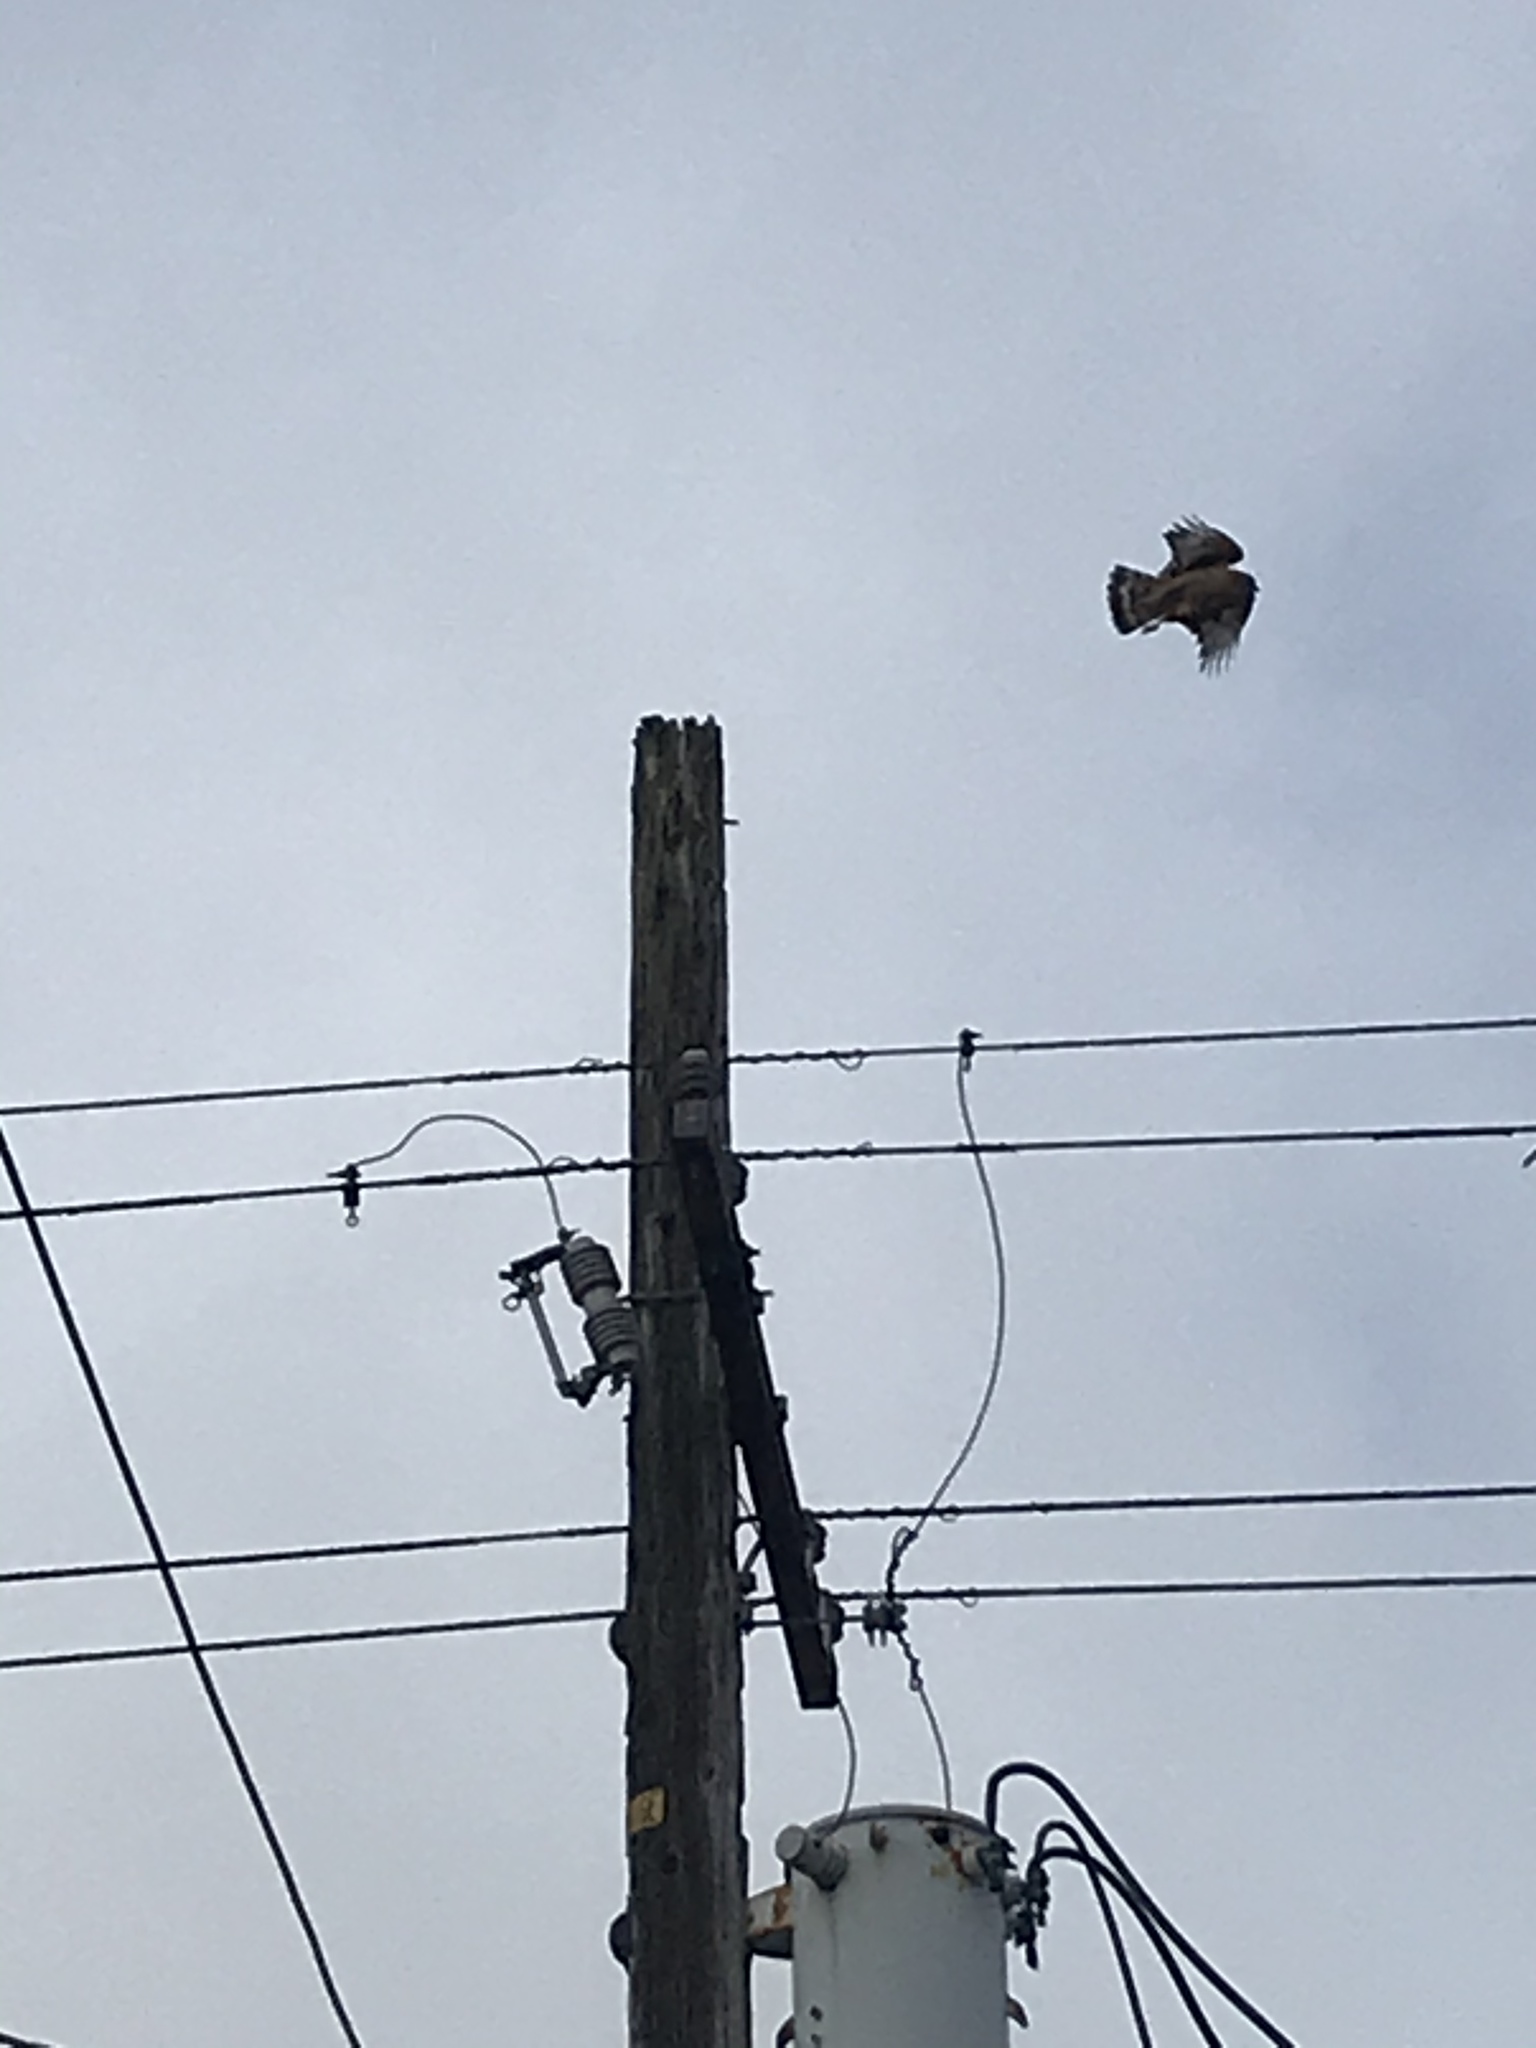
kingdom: Animalia
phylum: Chordata
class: Aves
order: Accipitriformes
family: Accipitridae
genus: Buteo
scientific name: Buteo lineatus
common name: Red-shouldered hawk
